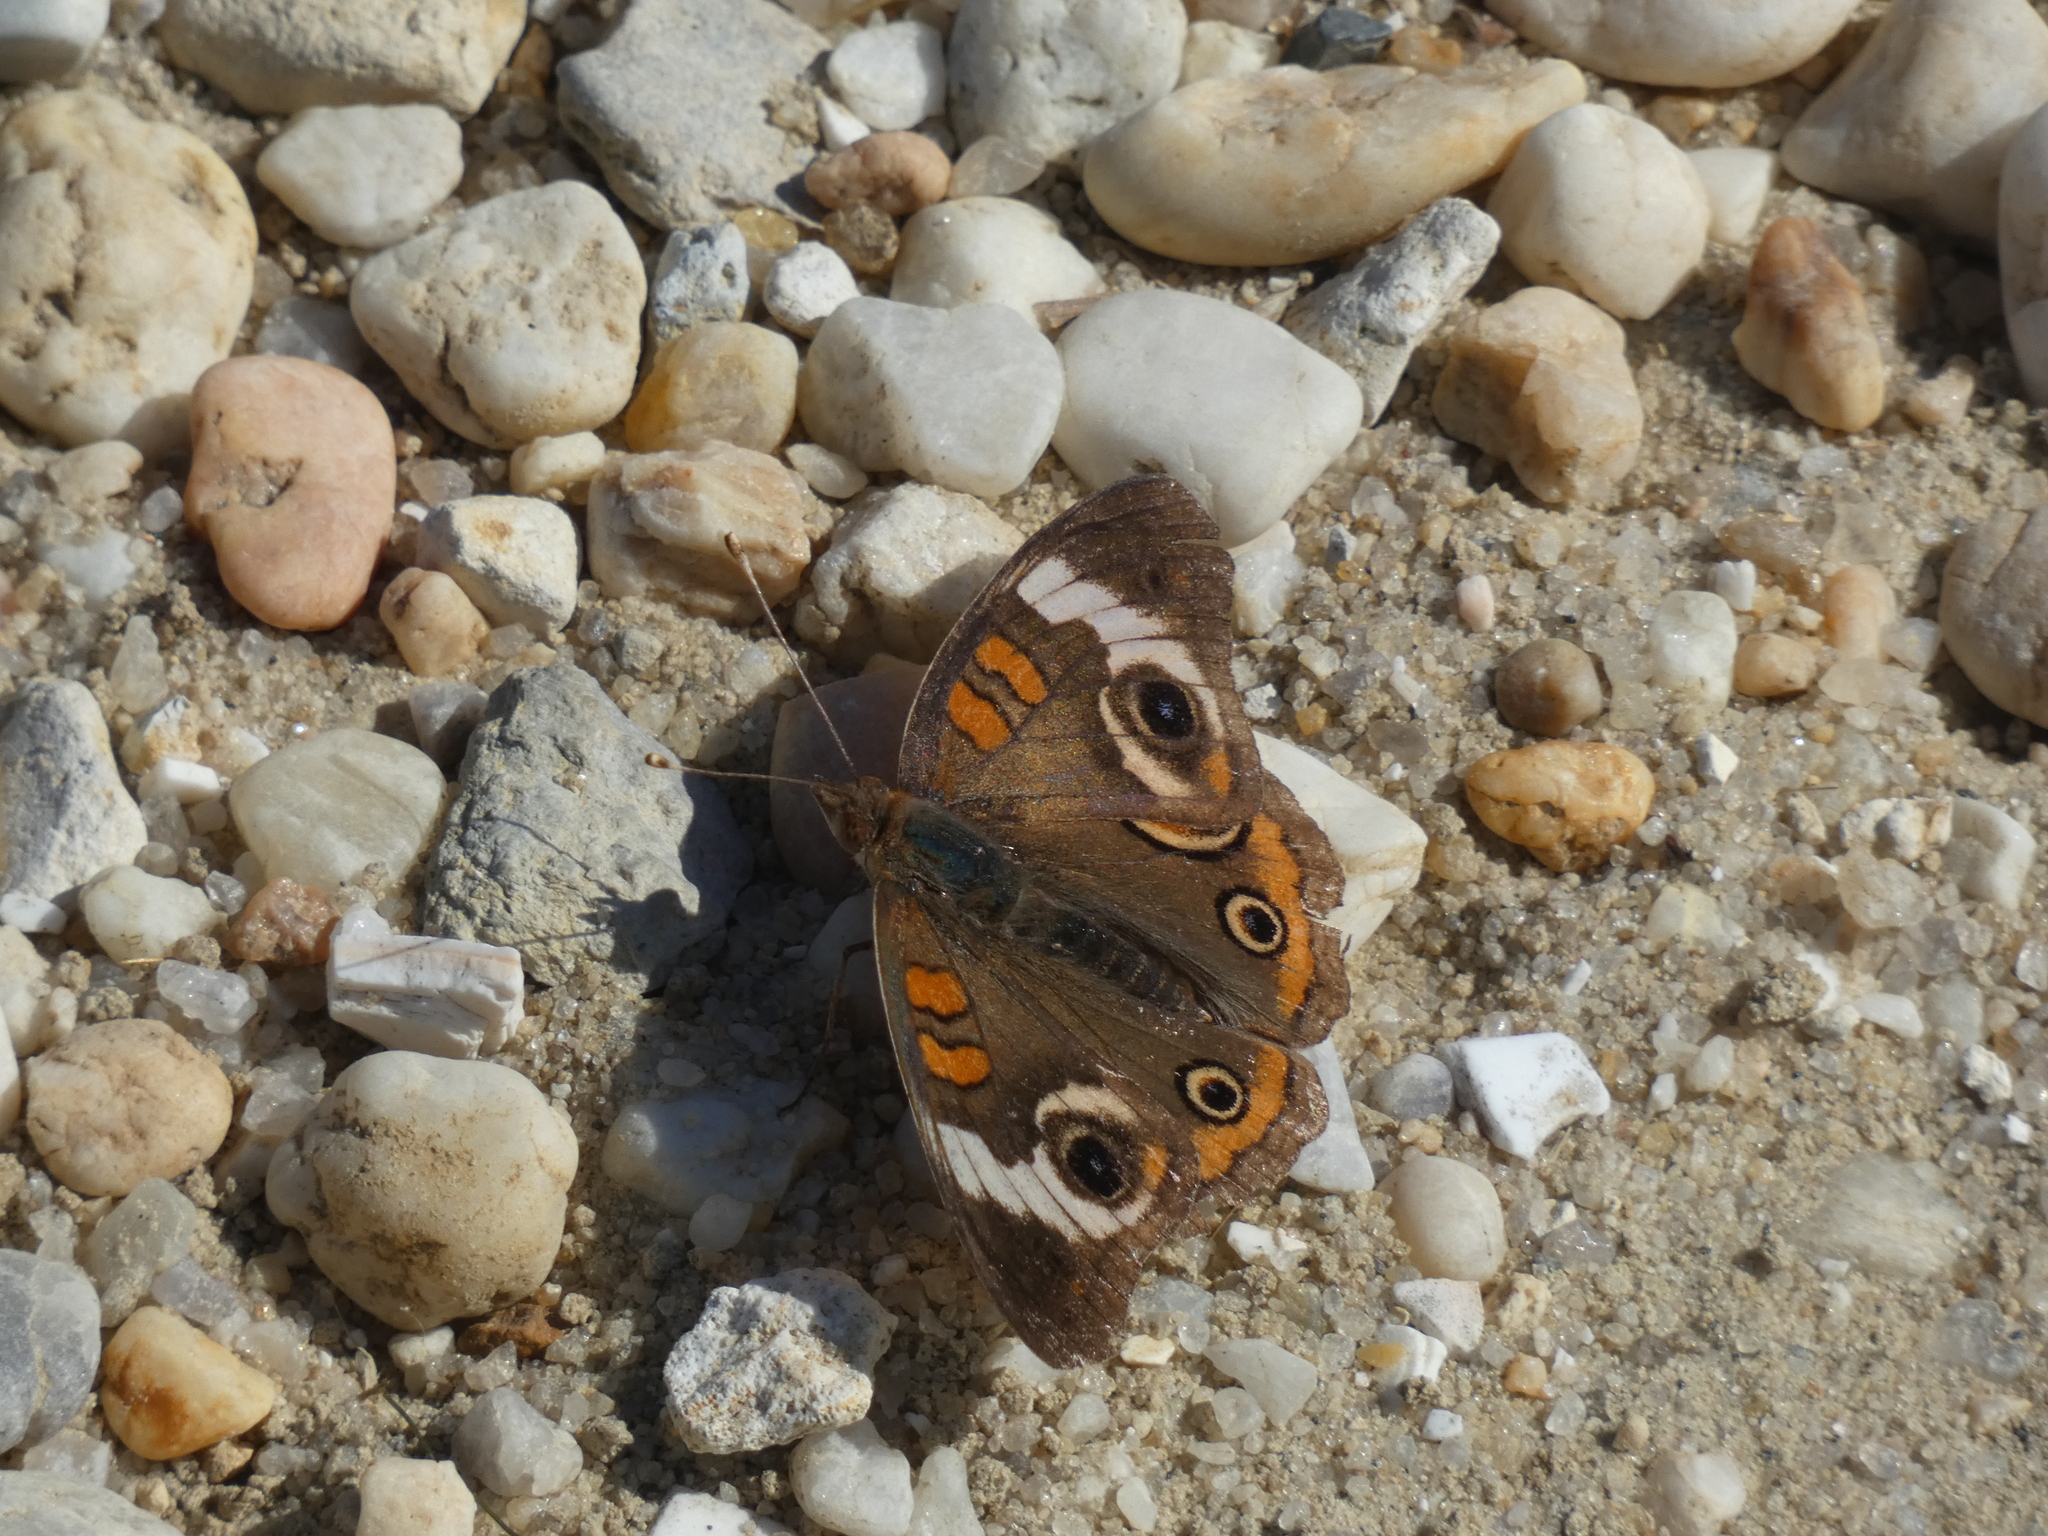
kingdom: Animalia
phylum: Arthropoda
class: Insecta
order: Lepidoptera
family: Nymphalidae
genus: Junonia
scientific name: Junonia coenia
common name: Common buckeye
